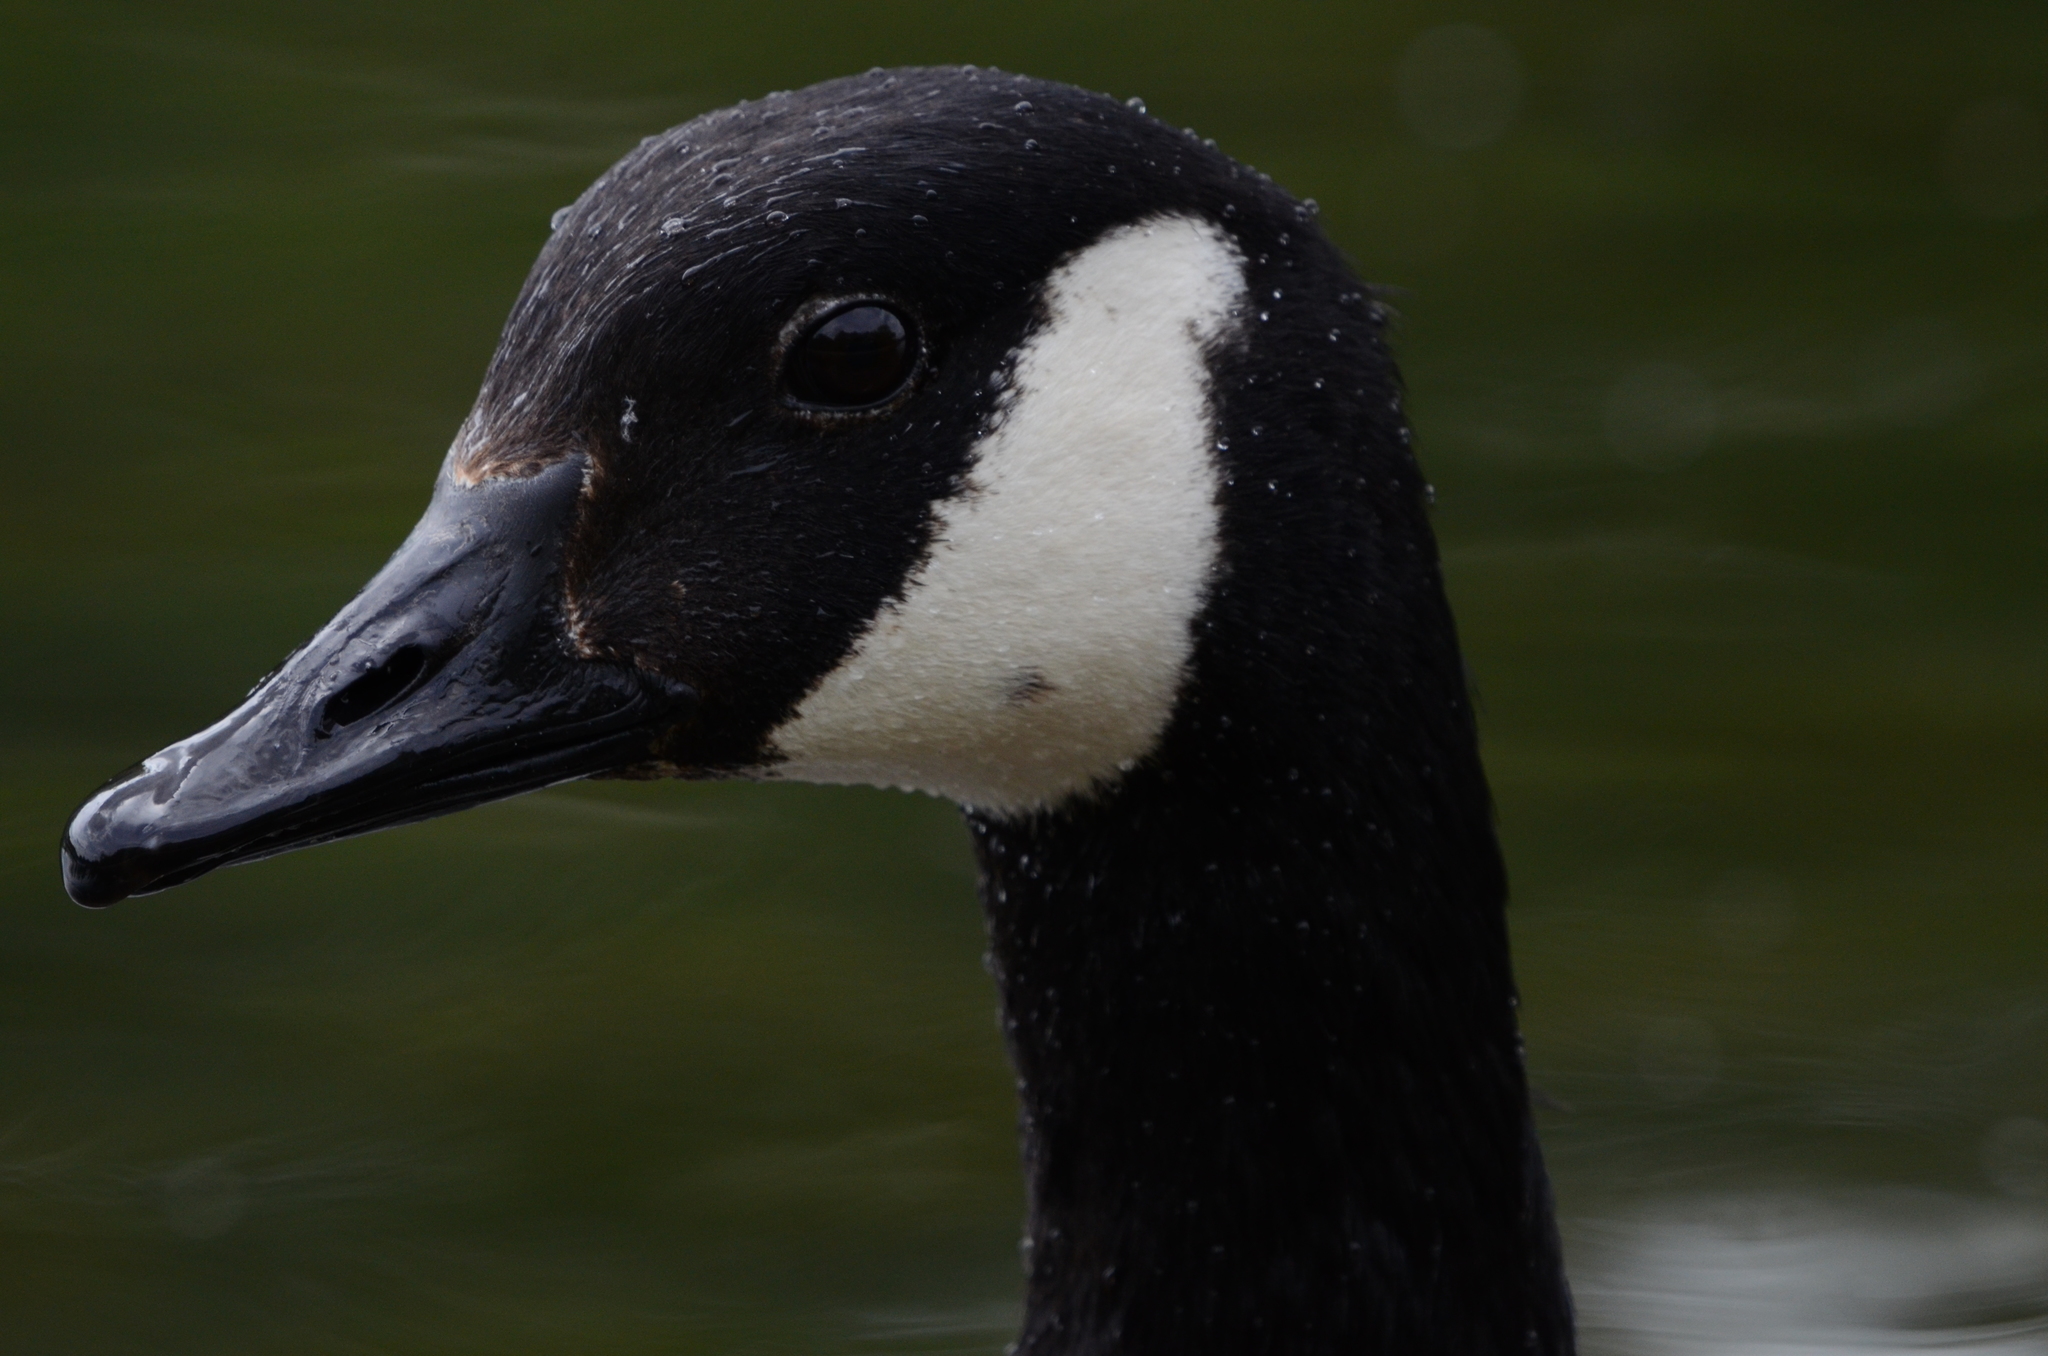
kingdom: Animalia
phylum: Chordata
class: Aves
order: Anseriformes
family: Anatidae
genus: Branta
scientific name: Branta canadensis
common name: Canada goose
